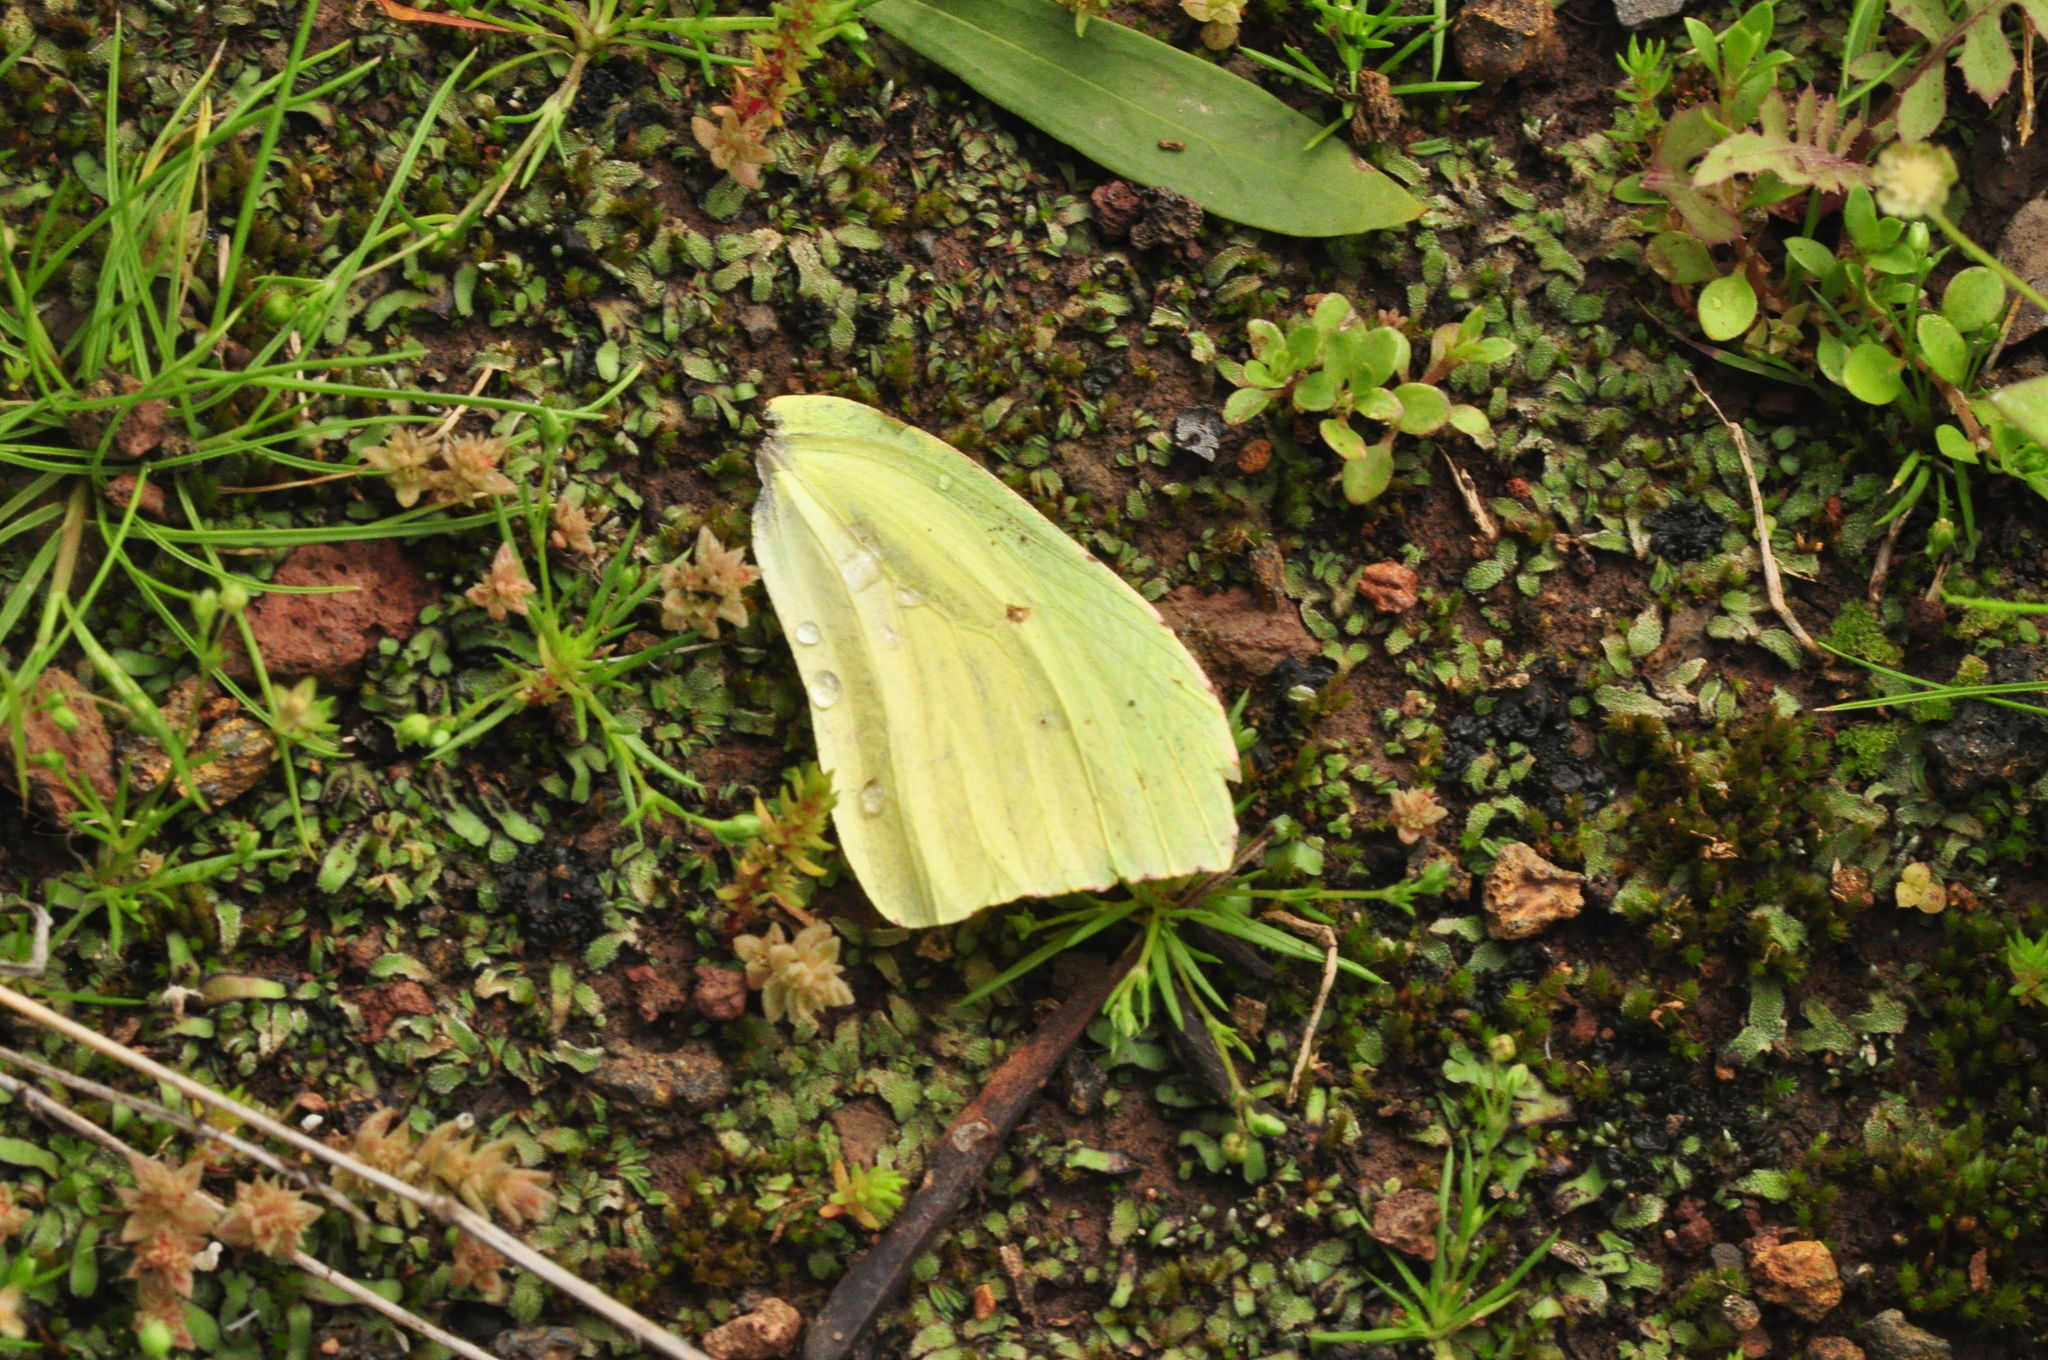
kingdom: Animalia
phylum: Arthropoda
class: Insecta
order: Lepidoptera
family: Pieridae
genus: Gonepteryx
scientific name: Gonepteryx cleobule
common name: Canary brimstone
